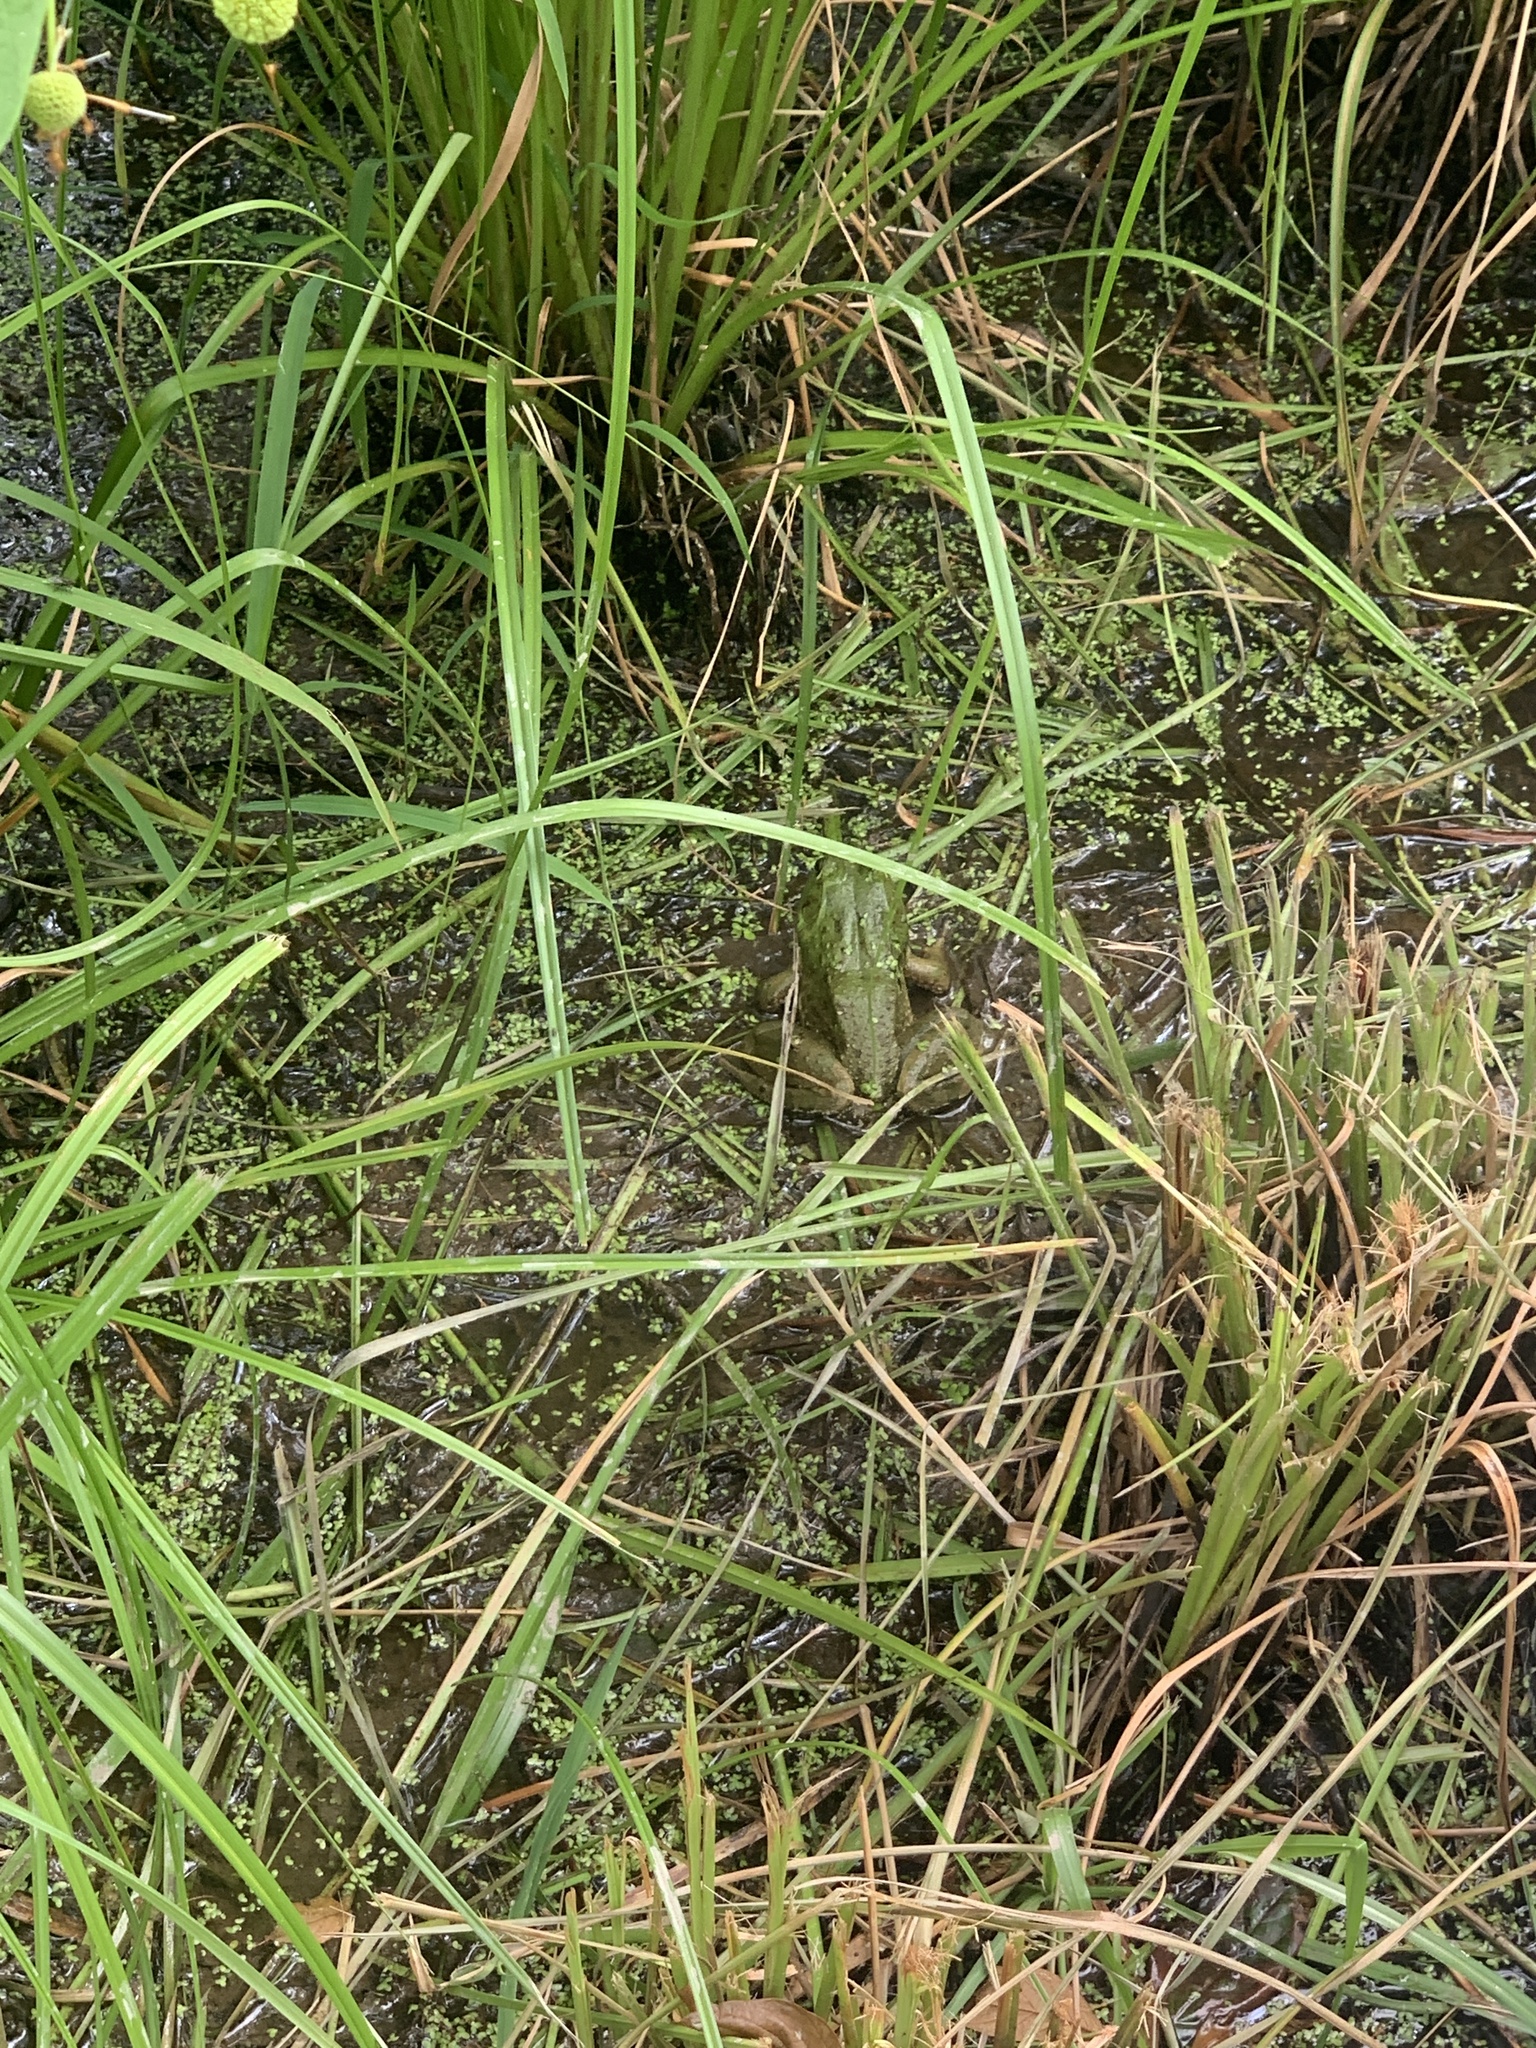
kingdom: Animalia
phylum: Chordata
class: Amphibia
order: Anura
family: Ranidae
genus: Lithobates
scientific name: Lithobates catesbeianus
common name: American bullfrog
